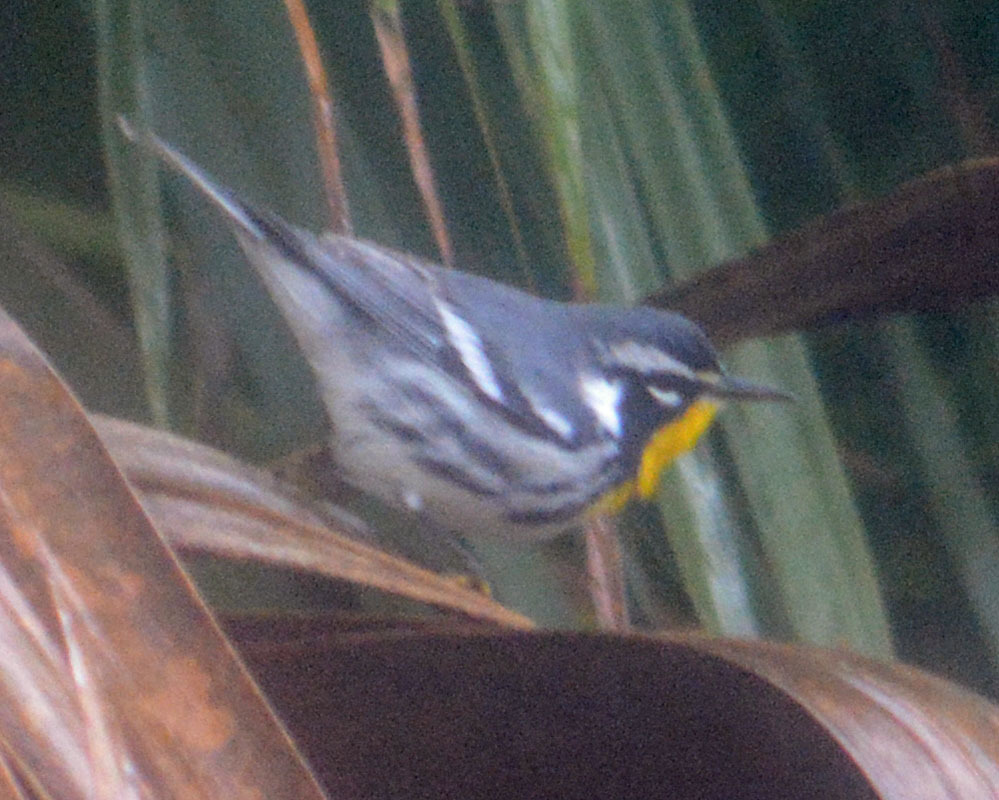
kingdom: Animalia
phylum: Chordata
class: Aves
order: Passeriformes
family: Parulidae
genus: Setophaga
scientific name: Setophaga dominica
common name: Yellow-throated warbler
